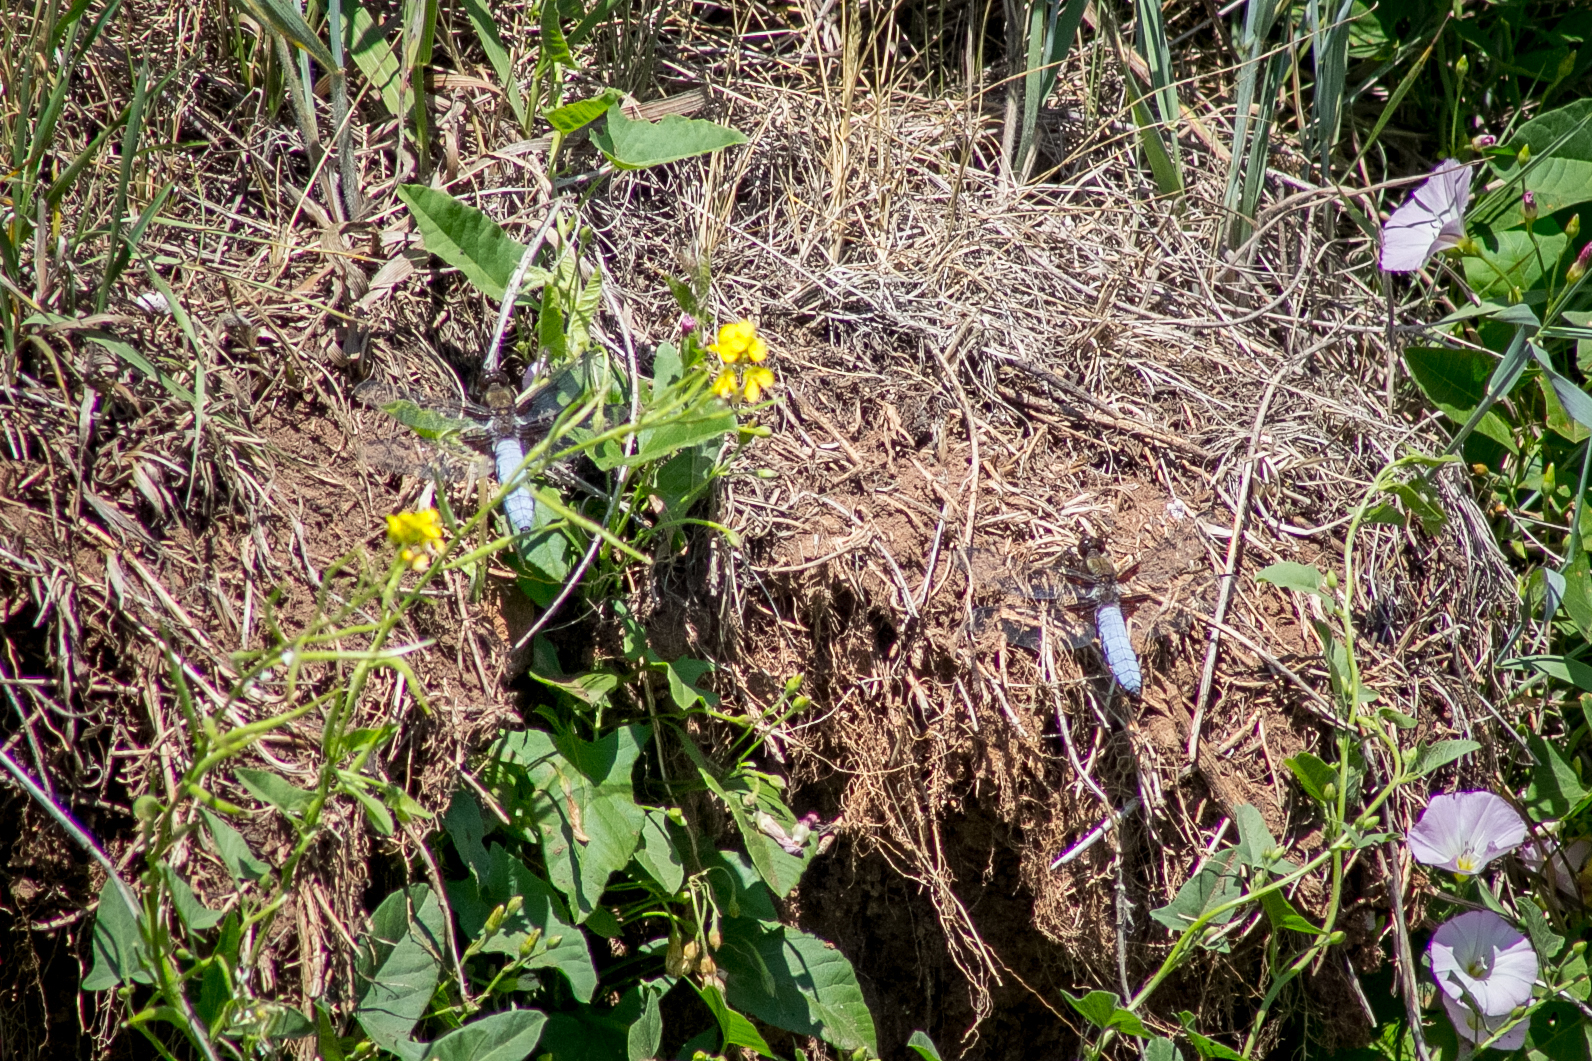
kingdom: Animalia
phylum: Arthropoda
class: Insecta
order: Odonata
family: Libellulidae
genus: Libellula
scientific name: Libellula depressa
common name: Broad-bodied chaser
